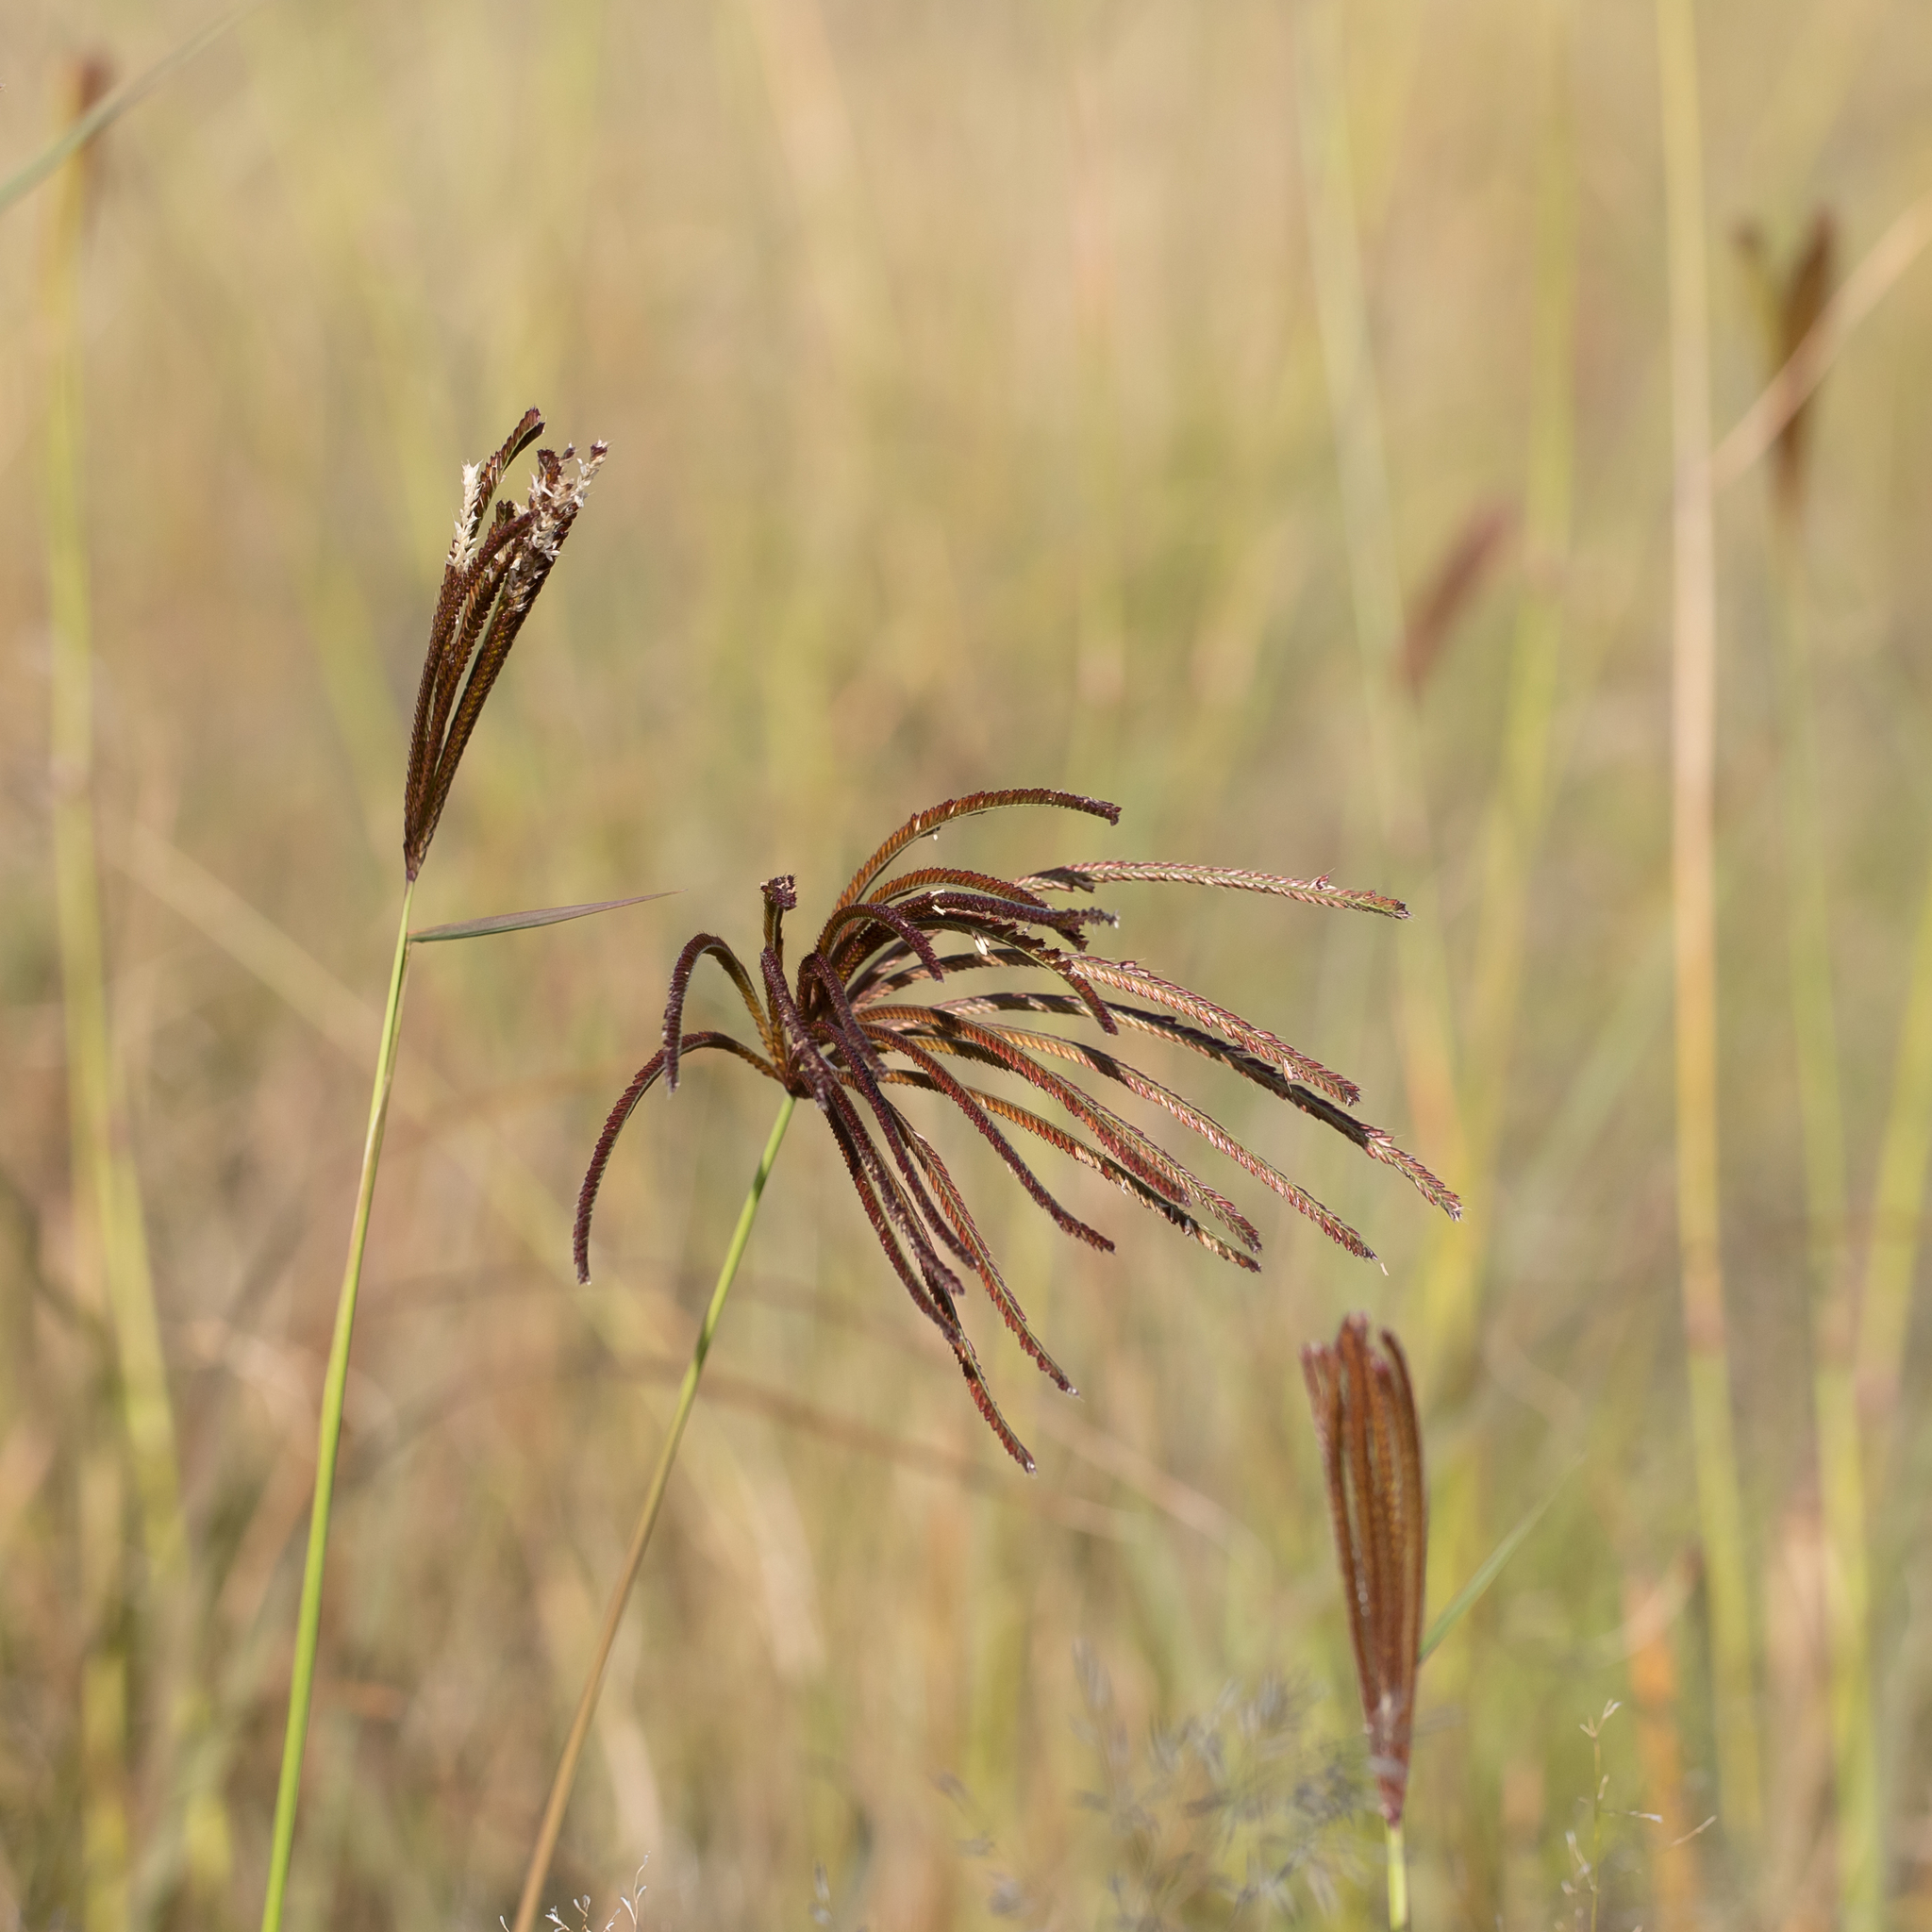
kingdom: Plantae
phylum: Tracheophyta
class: Liliopsida
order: Poales
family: Poaceae
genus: Chloris
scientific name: Chloris gayana
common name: Rhodes grass
